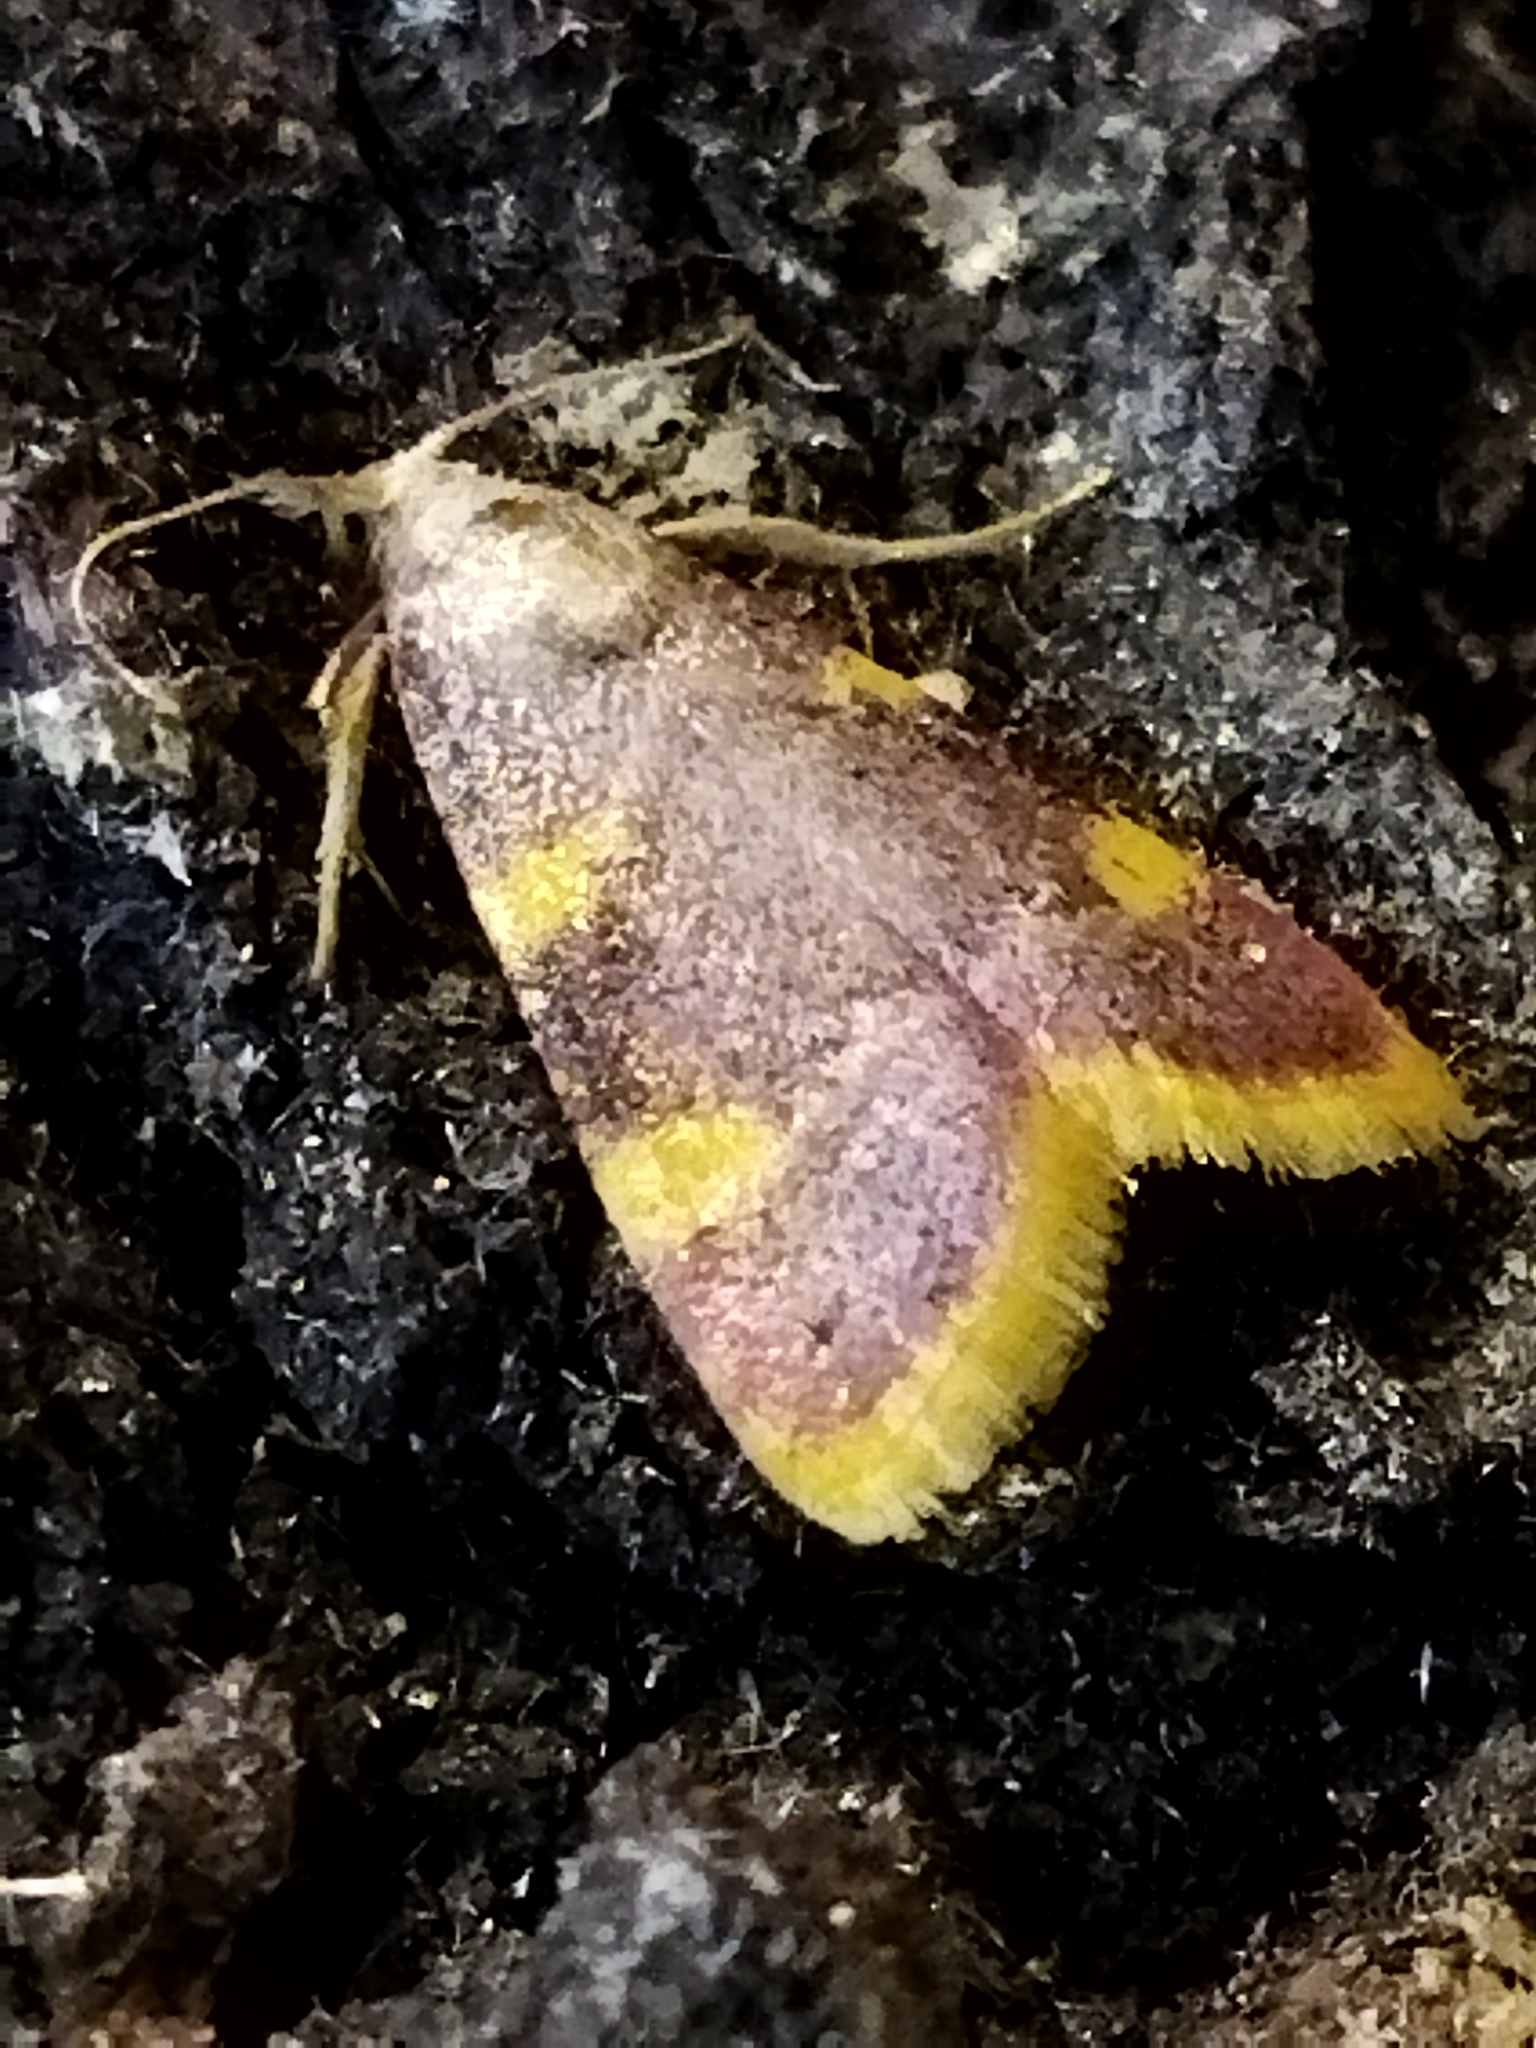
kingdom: Animalia
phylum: Arthropoda
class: Insecta
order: Lepidoptera
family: Pyralidae
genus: Hypsopygia
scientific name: Hypsopygia costalis
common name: Gold triangle
